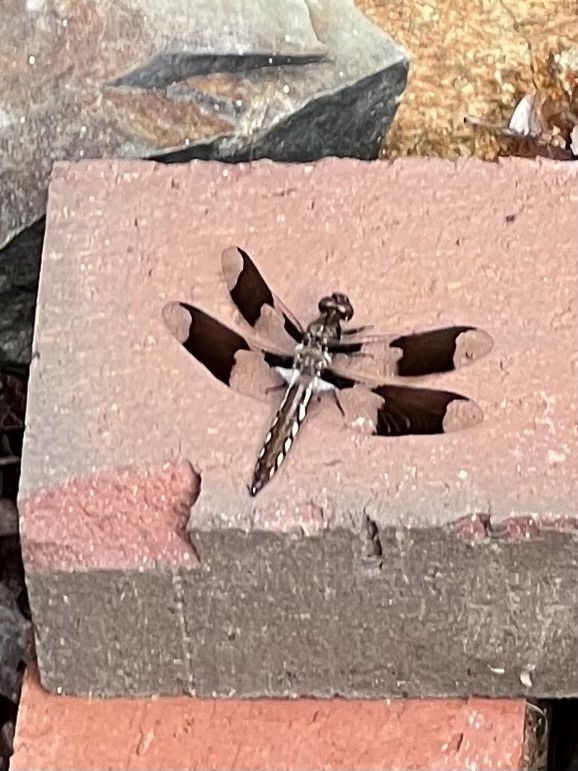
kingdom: Animalia
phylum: Arthropoda
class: Insecta
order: Odonata
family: Libellulidae
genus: Plathemis
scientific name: Plathemis lydia
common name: Common whitetail
